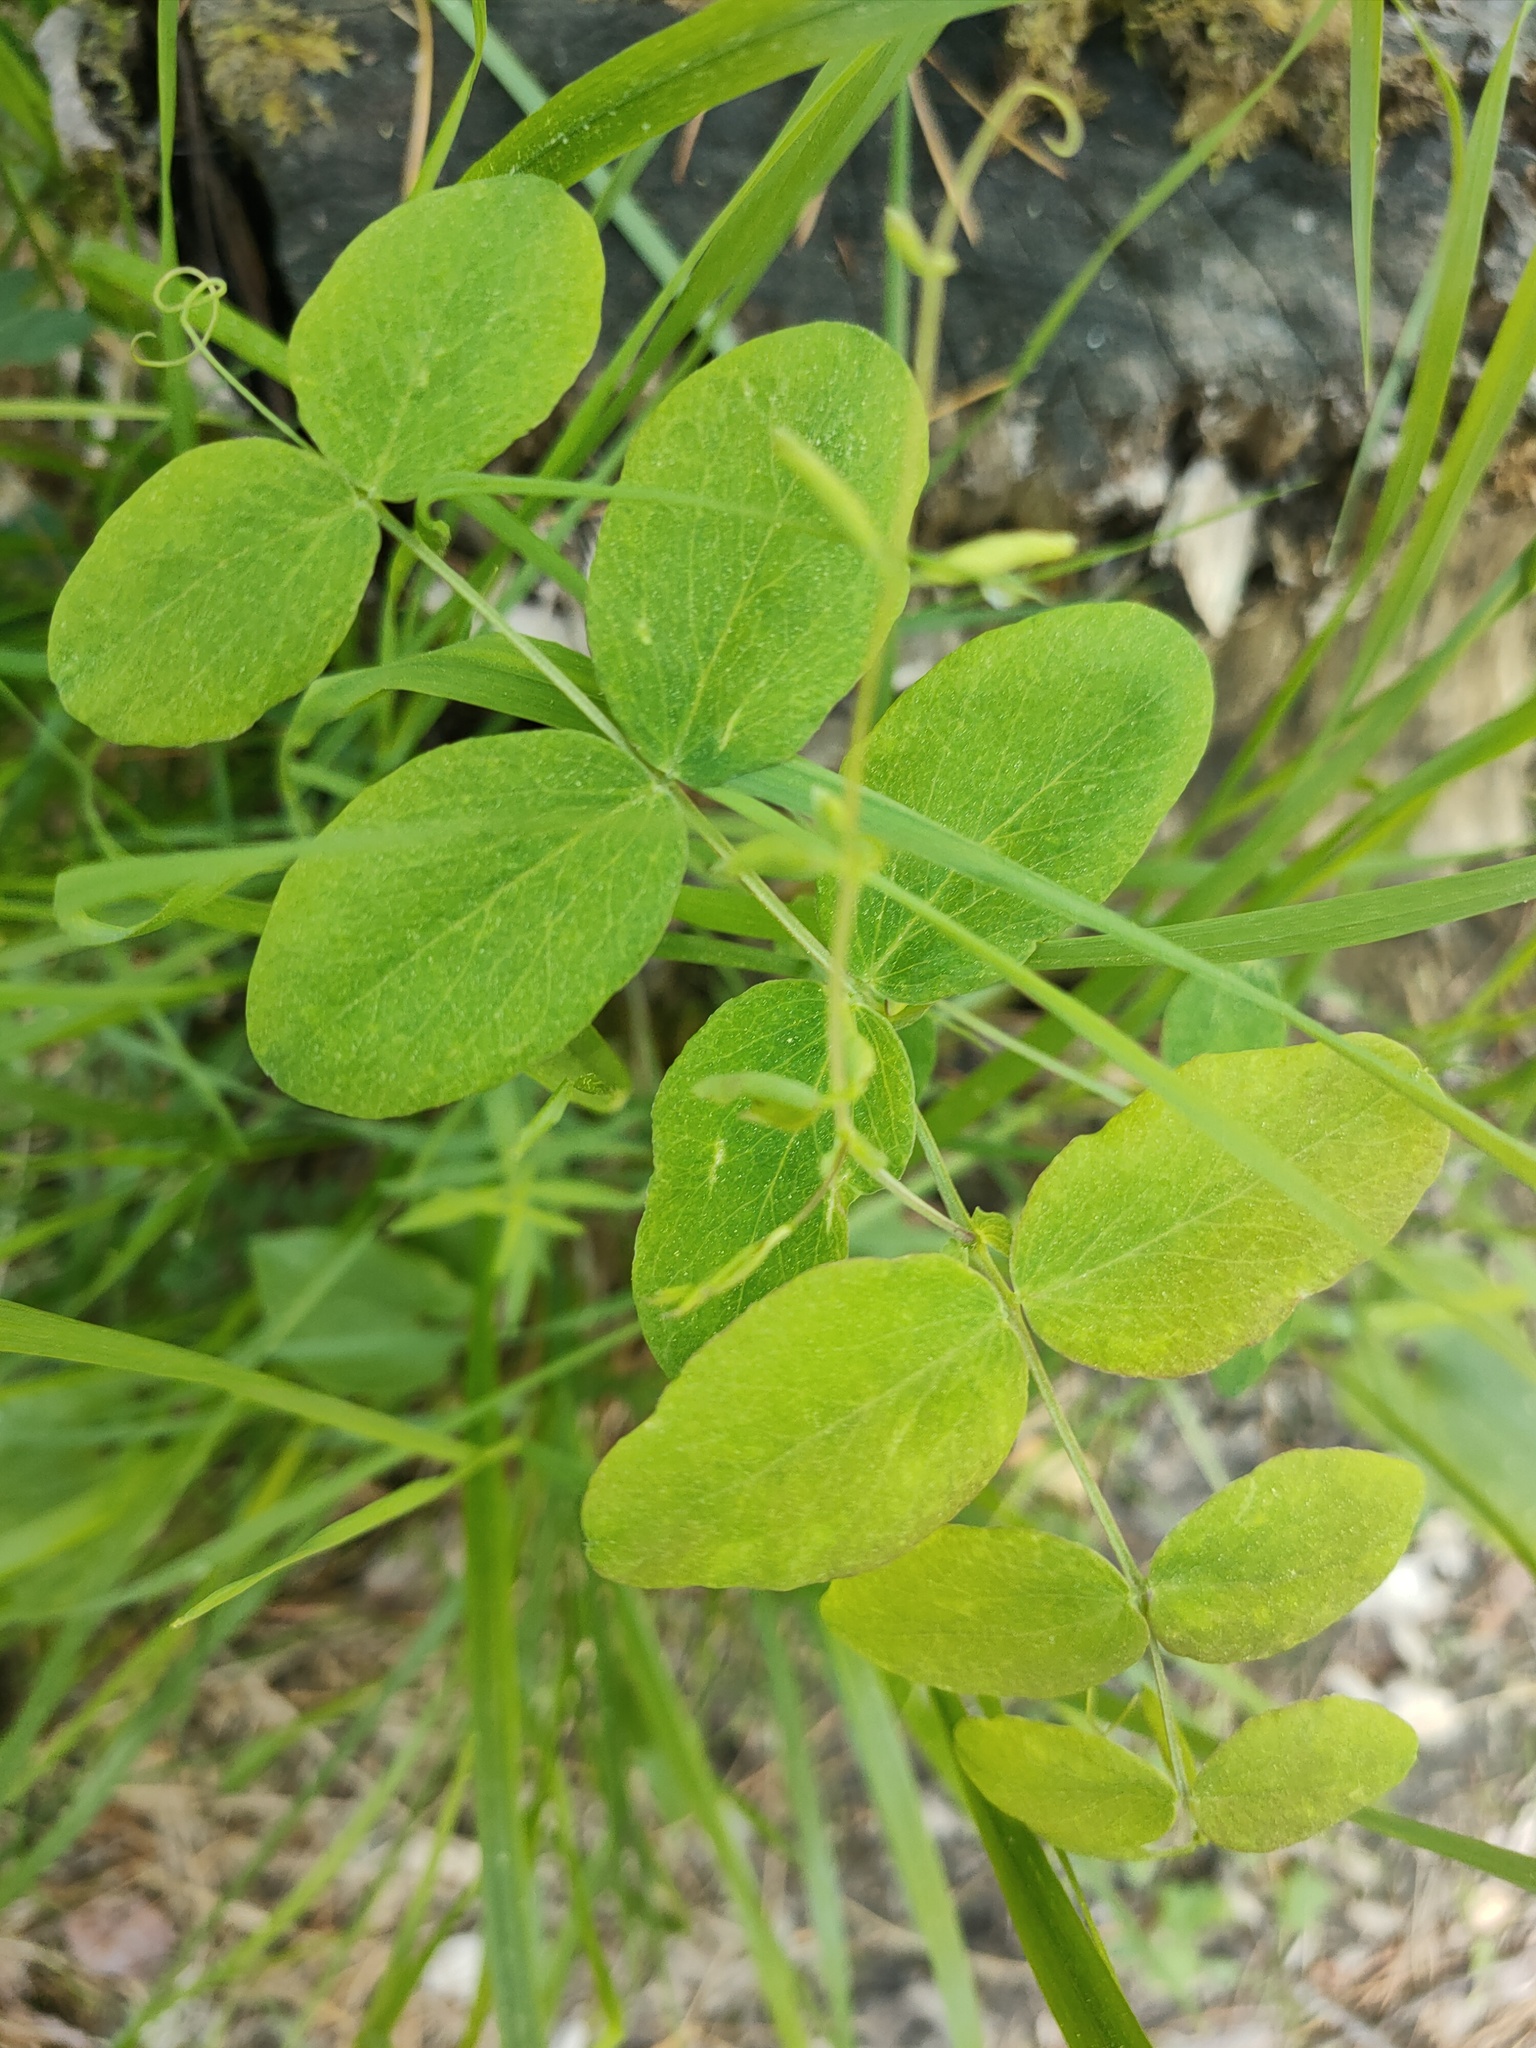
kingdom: Plantae
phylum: Tracheophyta
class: Magnoliopsida
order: Fabales
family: Fabaceae
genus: Lathyrus
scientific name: Lathyrus humilis
